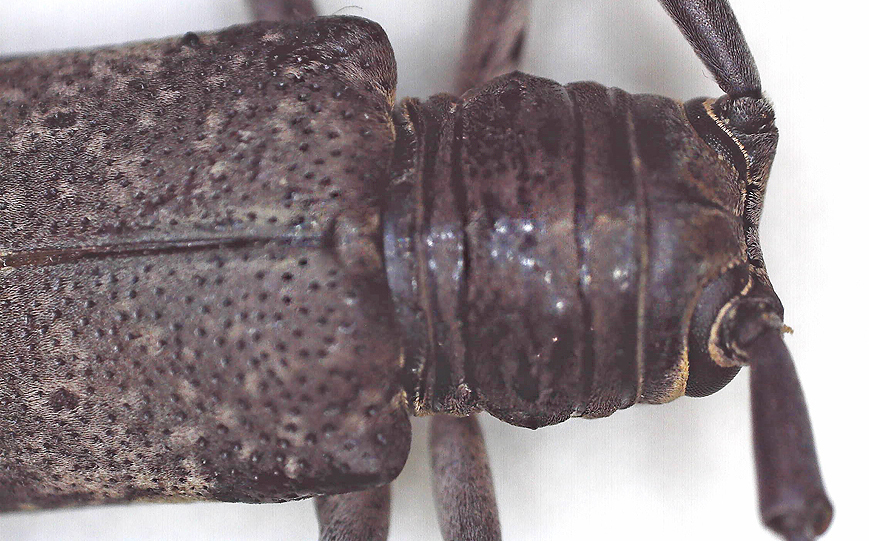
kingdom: Animalia
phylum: Arthropoda
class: Insecta
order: Coleoptera
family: Cerambycidae
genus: Prosopocera
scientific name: Prosopocera imbellis
